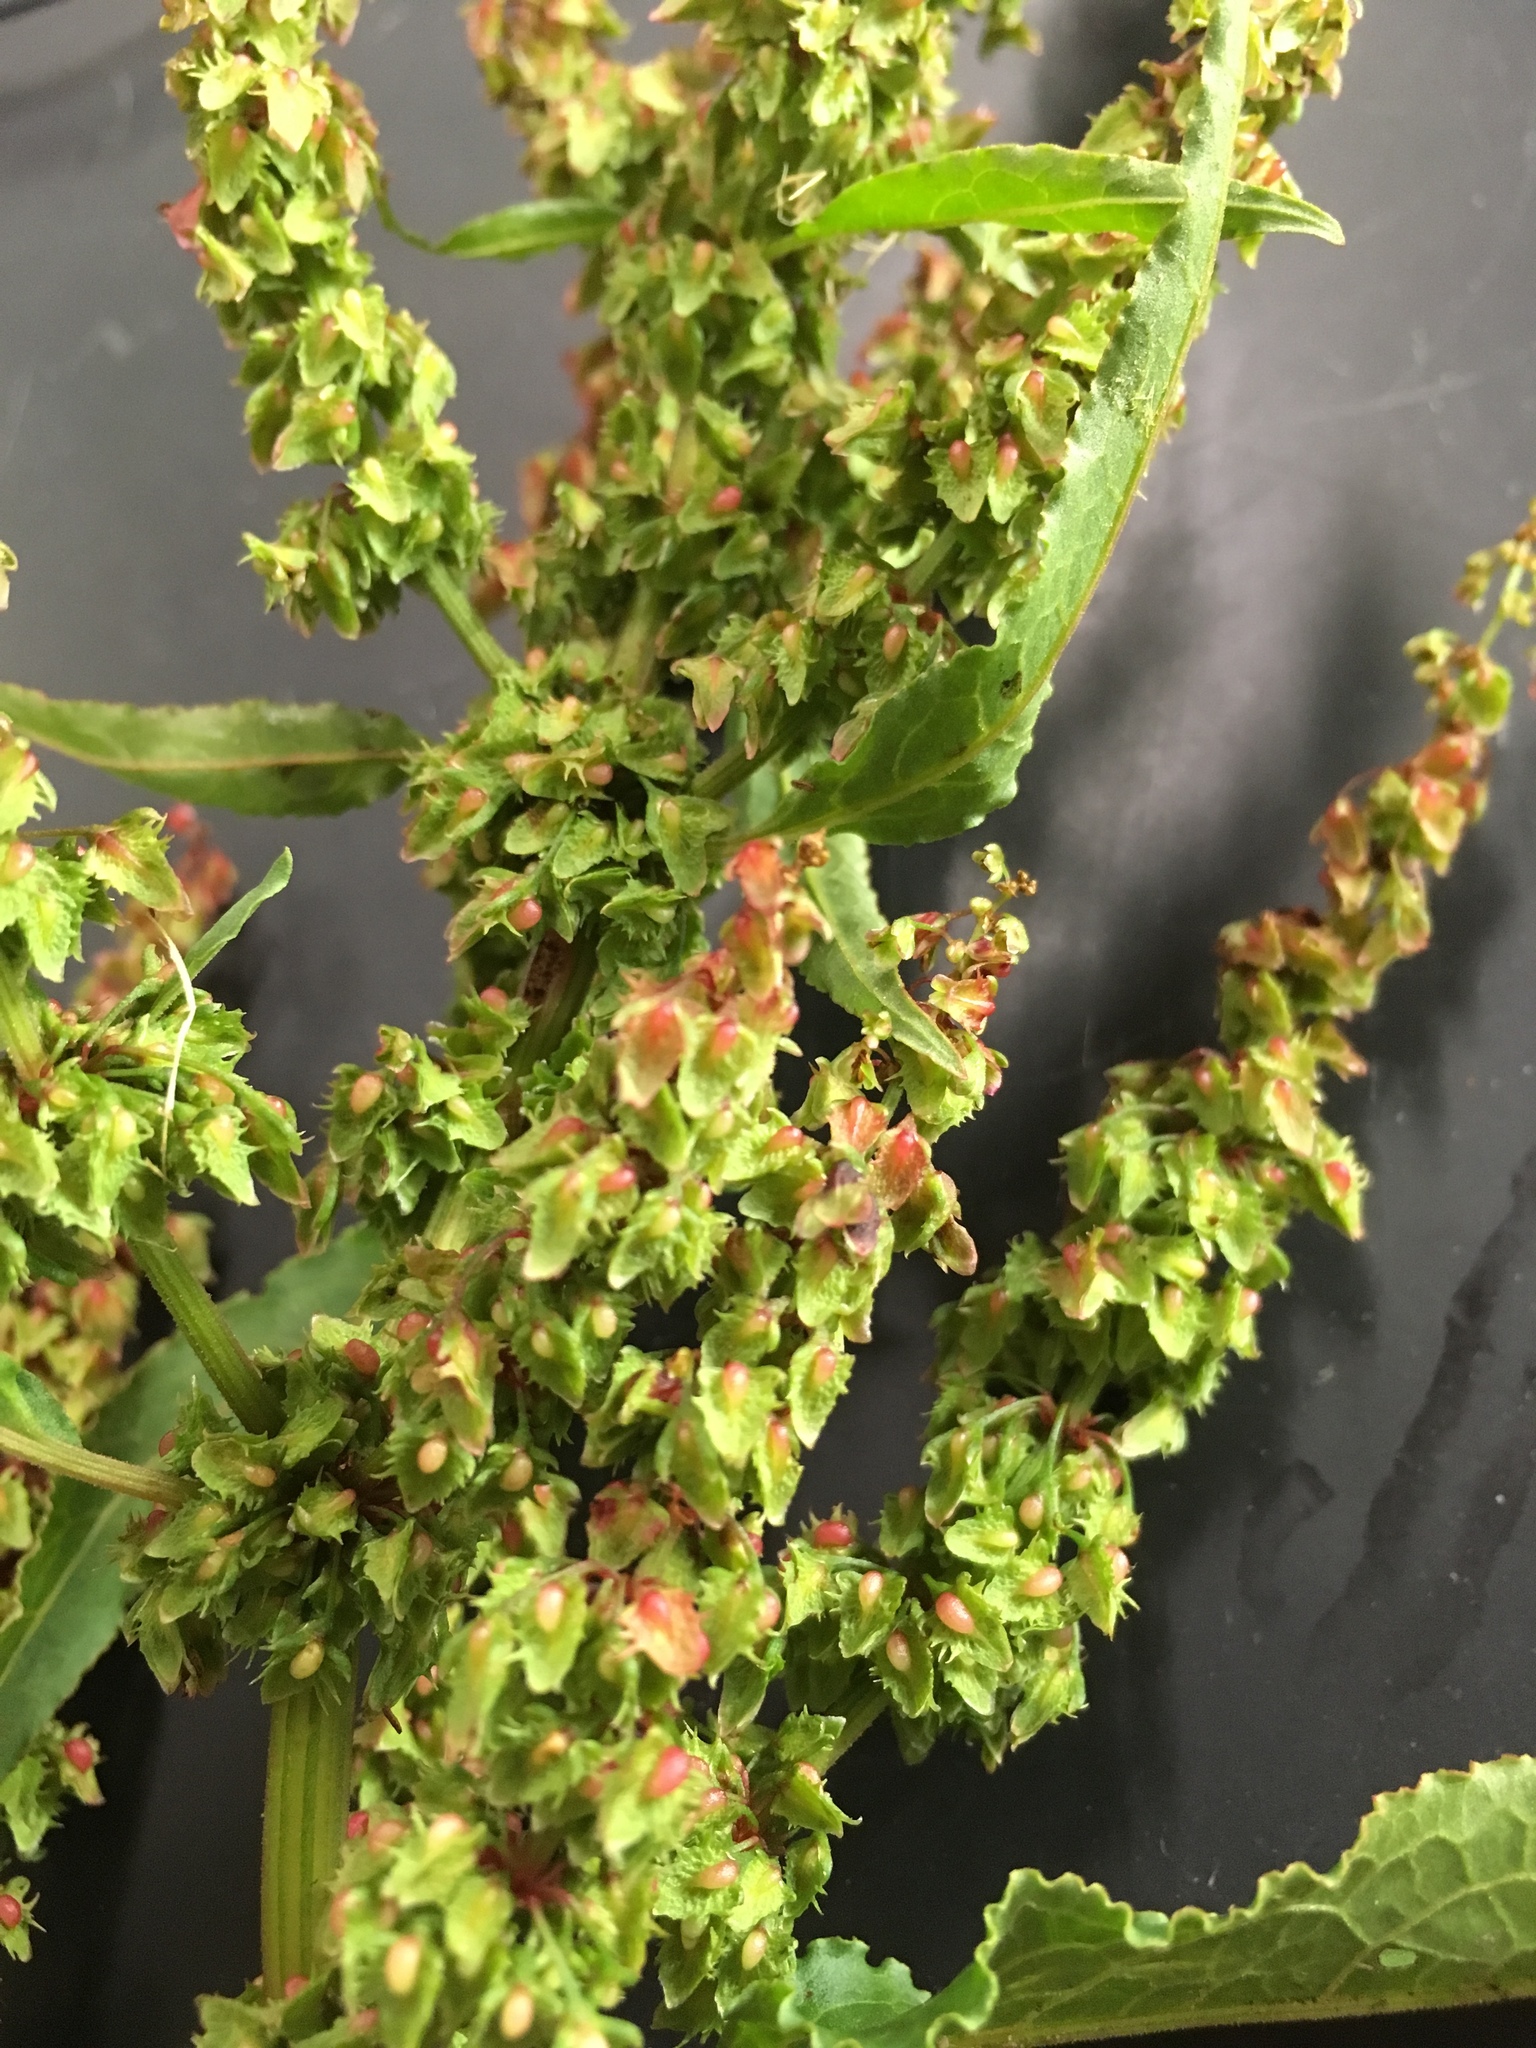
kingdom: Plantae
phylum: Tracheophyta
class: Magnoliopsida
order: Caryophyllales
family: Polygonaceae
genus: Rumex
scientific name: Rumex obtusifolius
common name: Bitter dock
